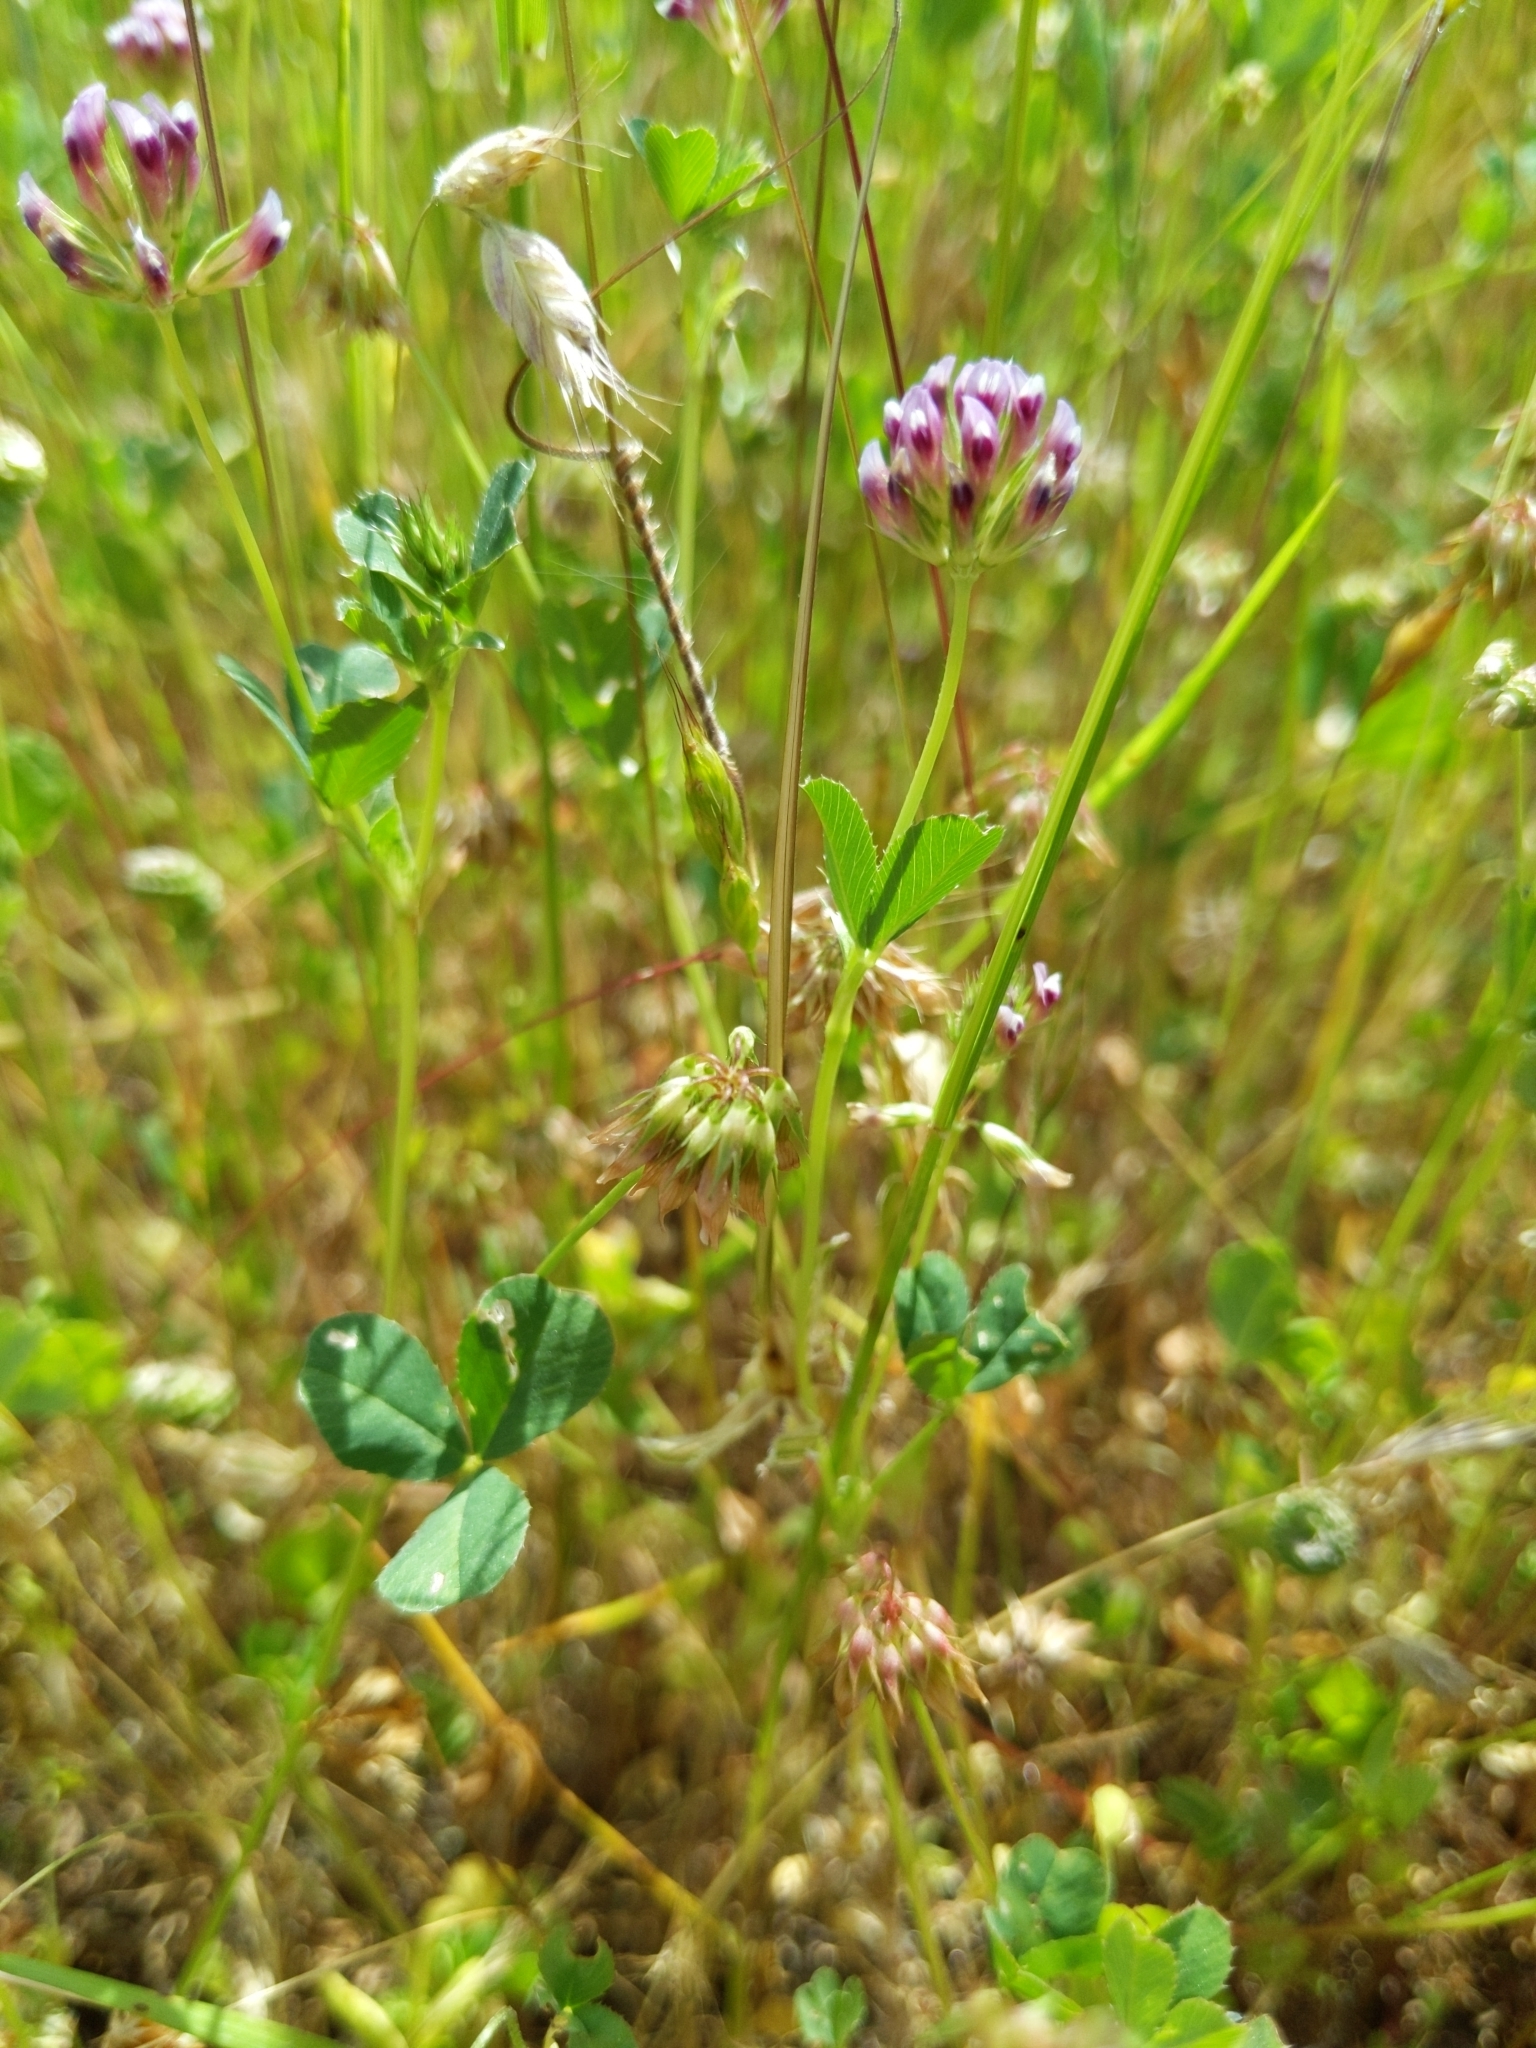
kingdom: Plantae
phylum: Tracheophyta
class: Magnoliopsida
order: Fabales
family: Fabaceae
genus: Trifolium
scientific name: Trifolium gracilentum
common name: Slender clover
